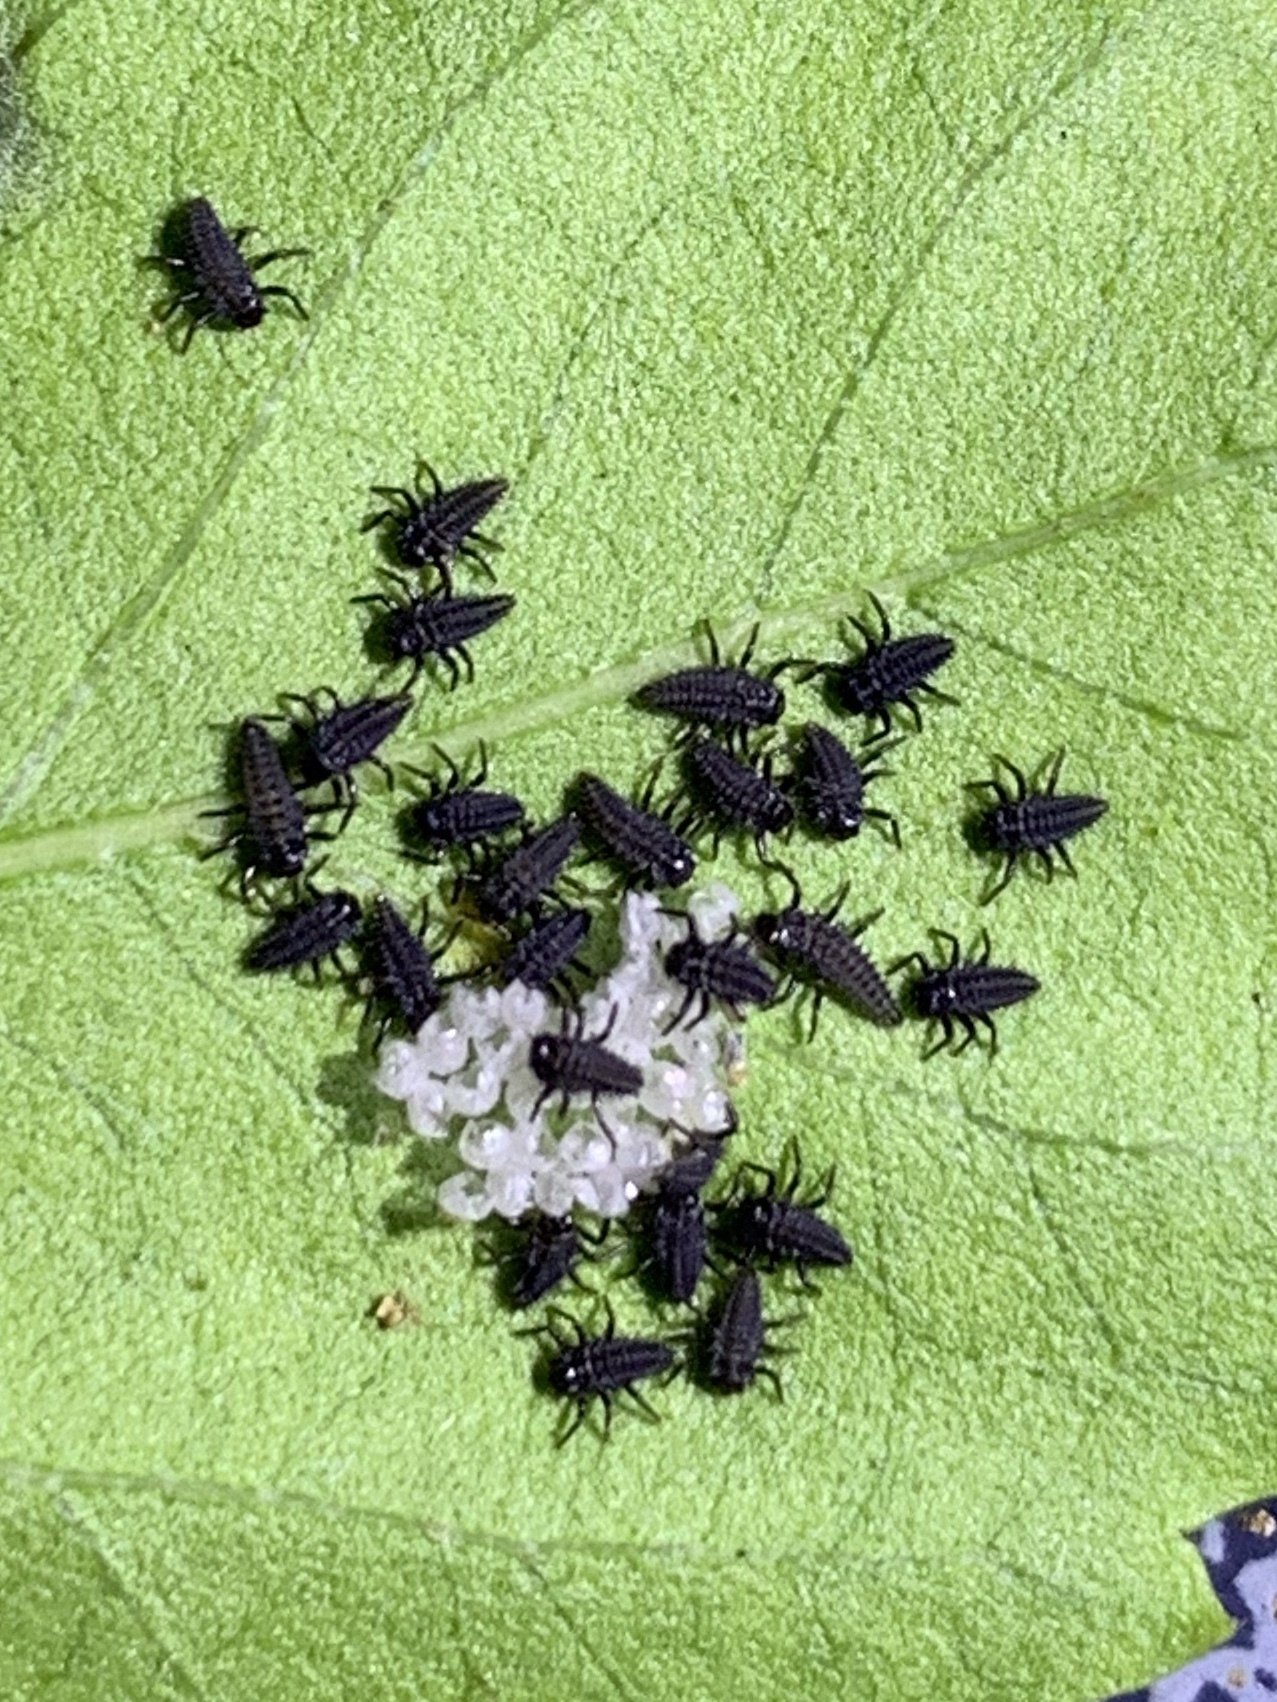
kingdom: Animalia
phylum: Arthropoda
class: Insecta
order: Coleoptera
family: Coccinellidae
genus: Harmonia
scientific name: Harmonia axyridis
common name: Harlequin ladybird
